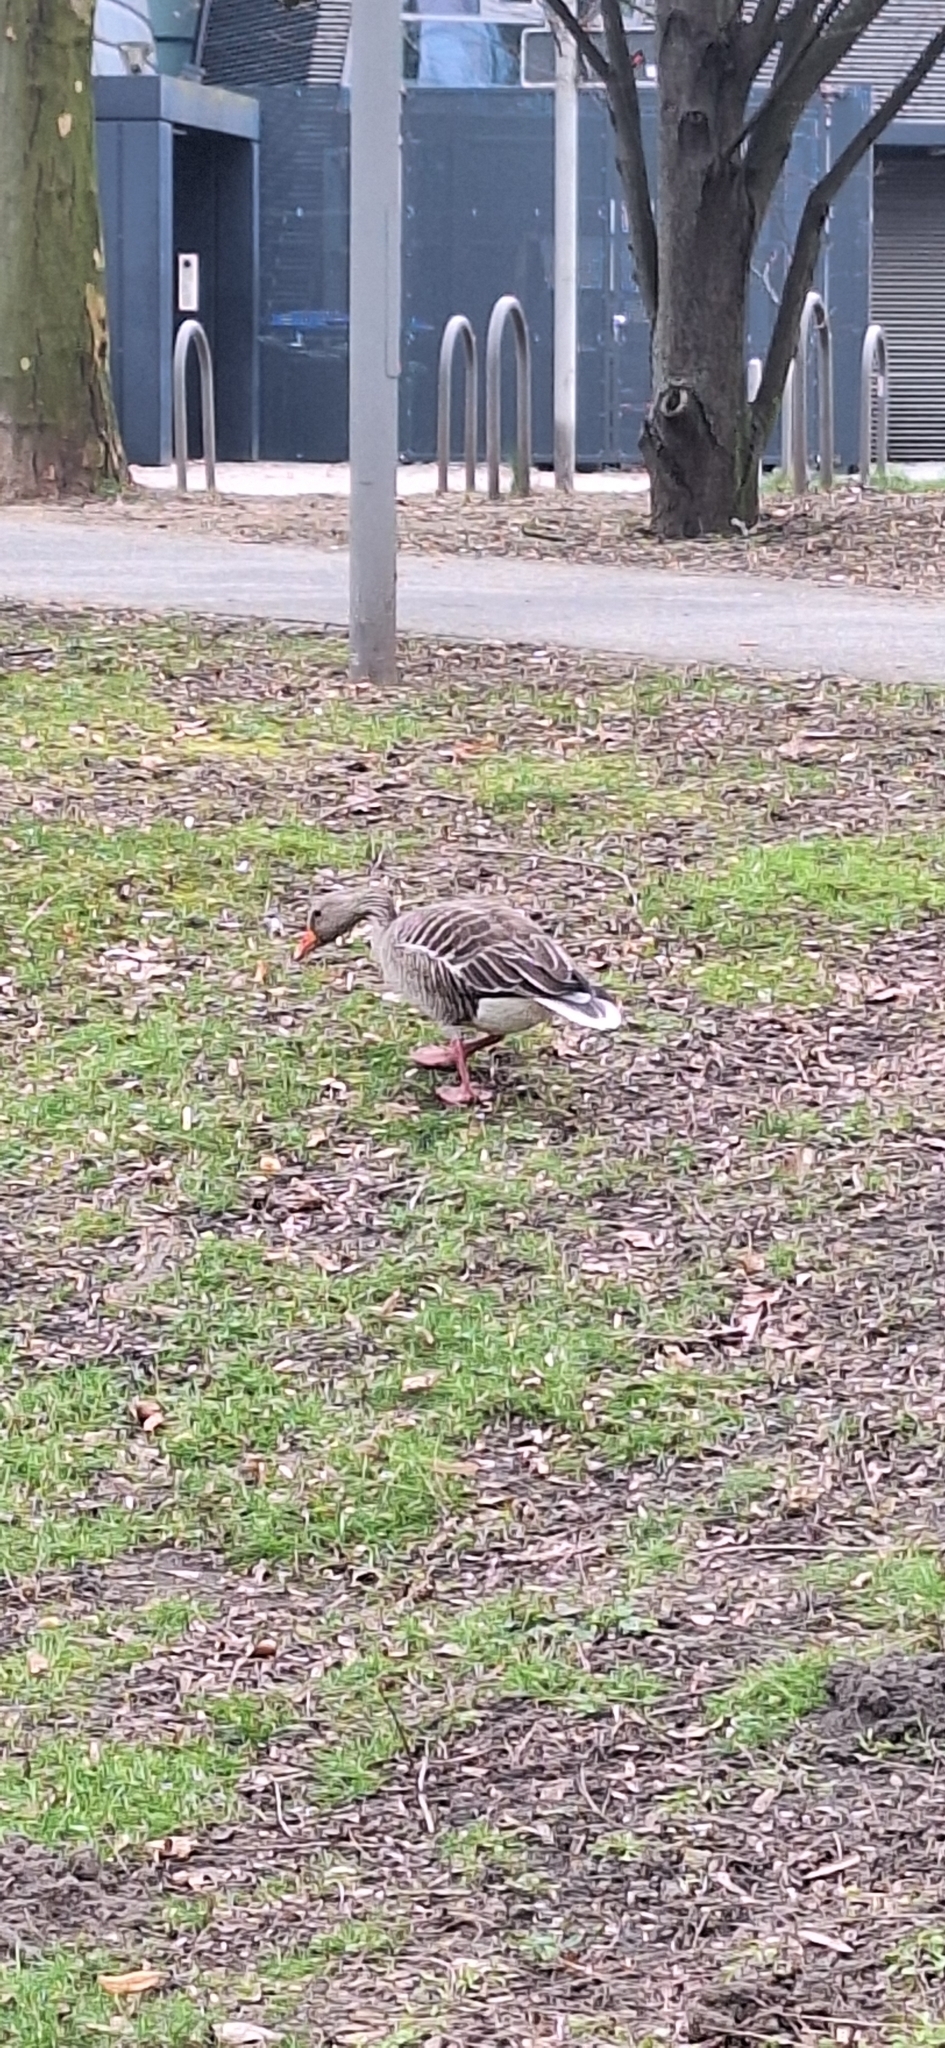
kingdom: Animalia
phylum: Chordata
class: Aves
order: Anseriformes
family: Anatidae
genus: Anser
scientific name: Anser anser
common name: Greylag goose
